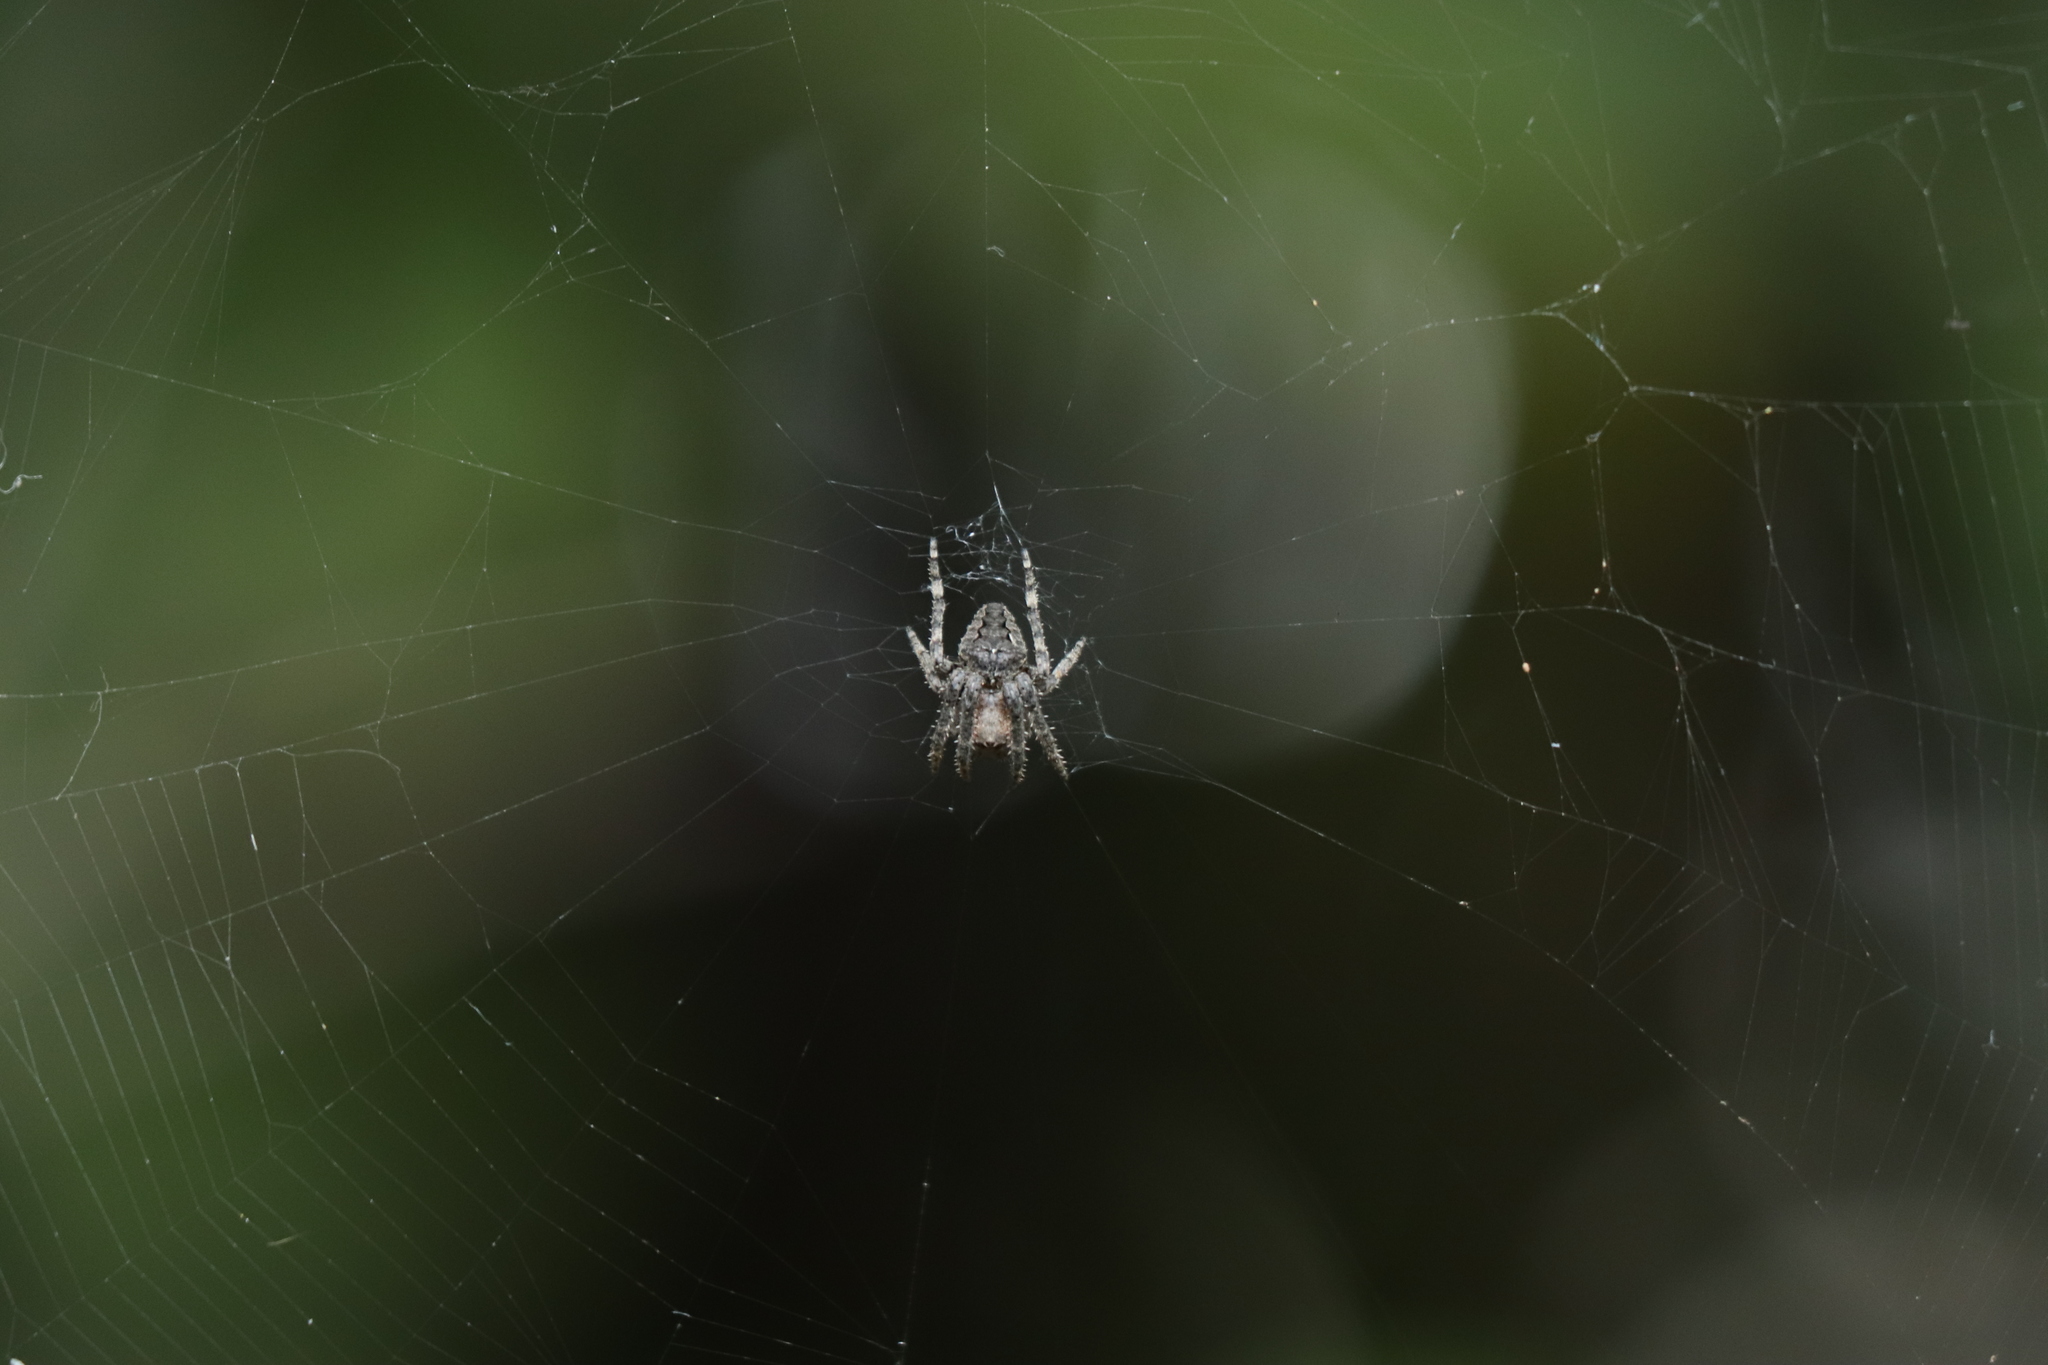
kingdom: Animalia
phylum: Arthropoda
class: Arachnida
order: Araneae
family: Araneidae
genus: Araneus
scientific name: Araneus ventricosus
